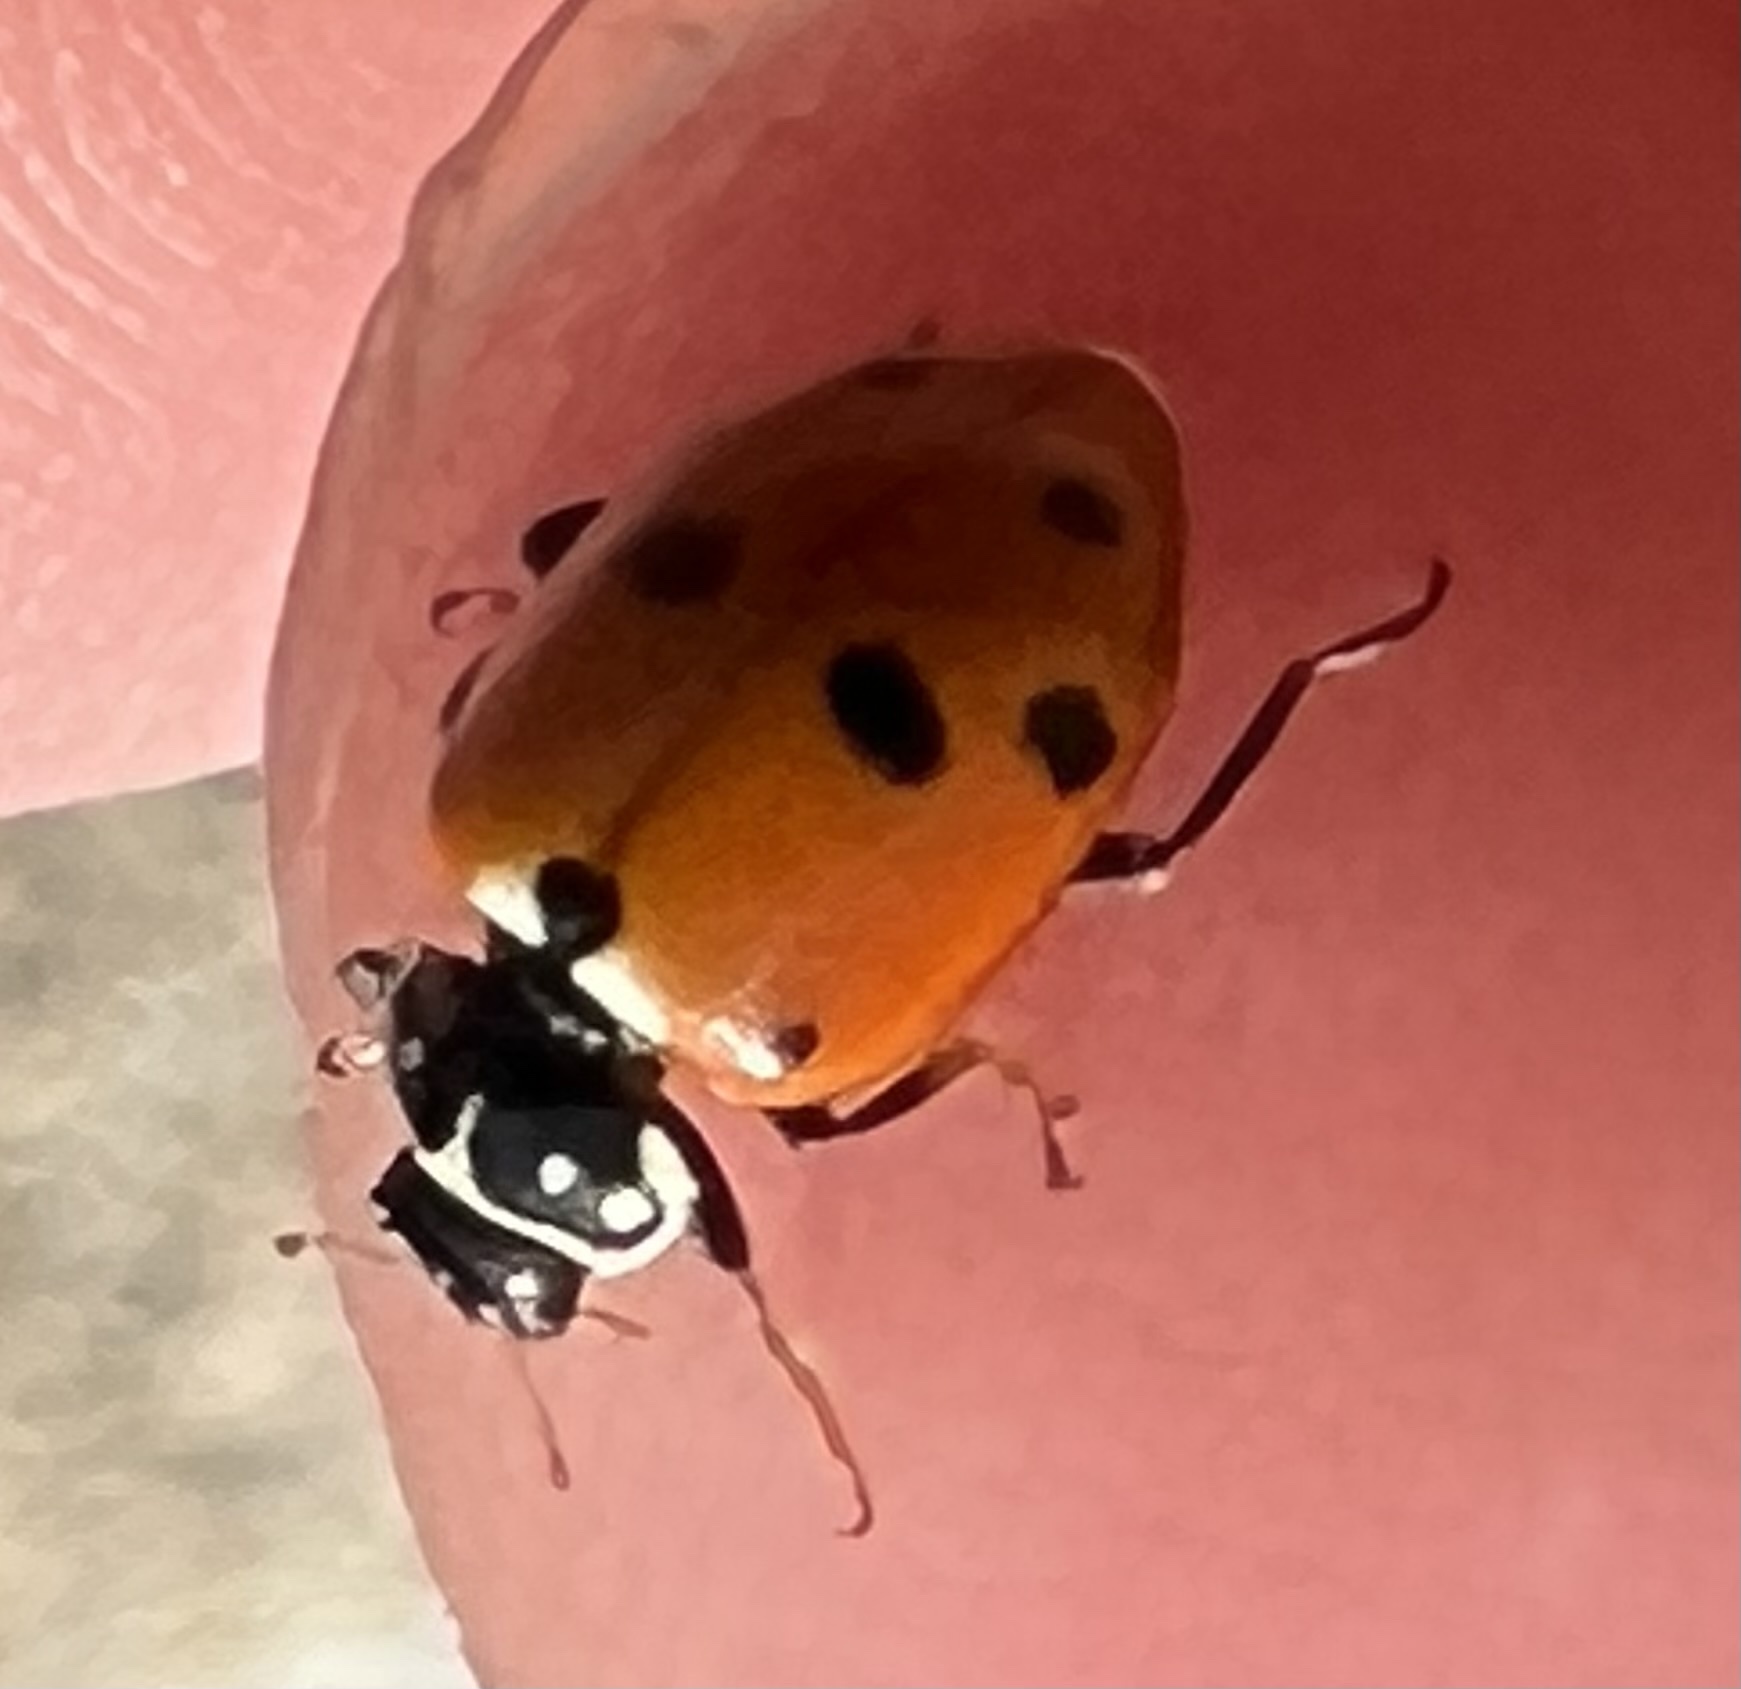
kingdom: Animalia
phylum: Arthropoda
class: Insecta
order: Coleoptera
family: Coccinellidae
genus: Hippodamia
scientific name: Hippodamia variegata
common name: Ladybird beetle
